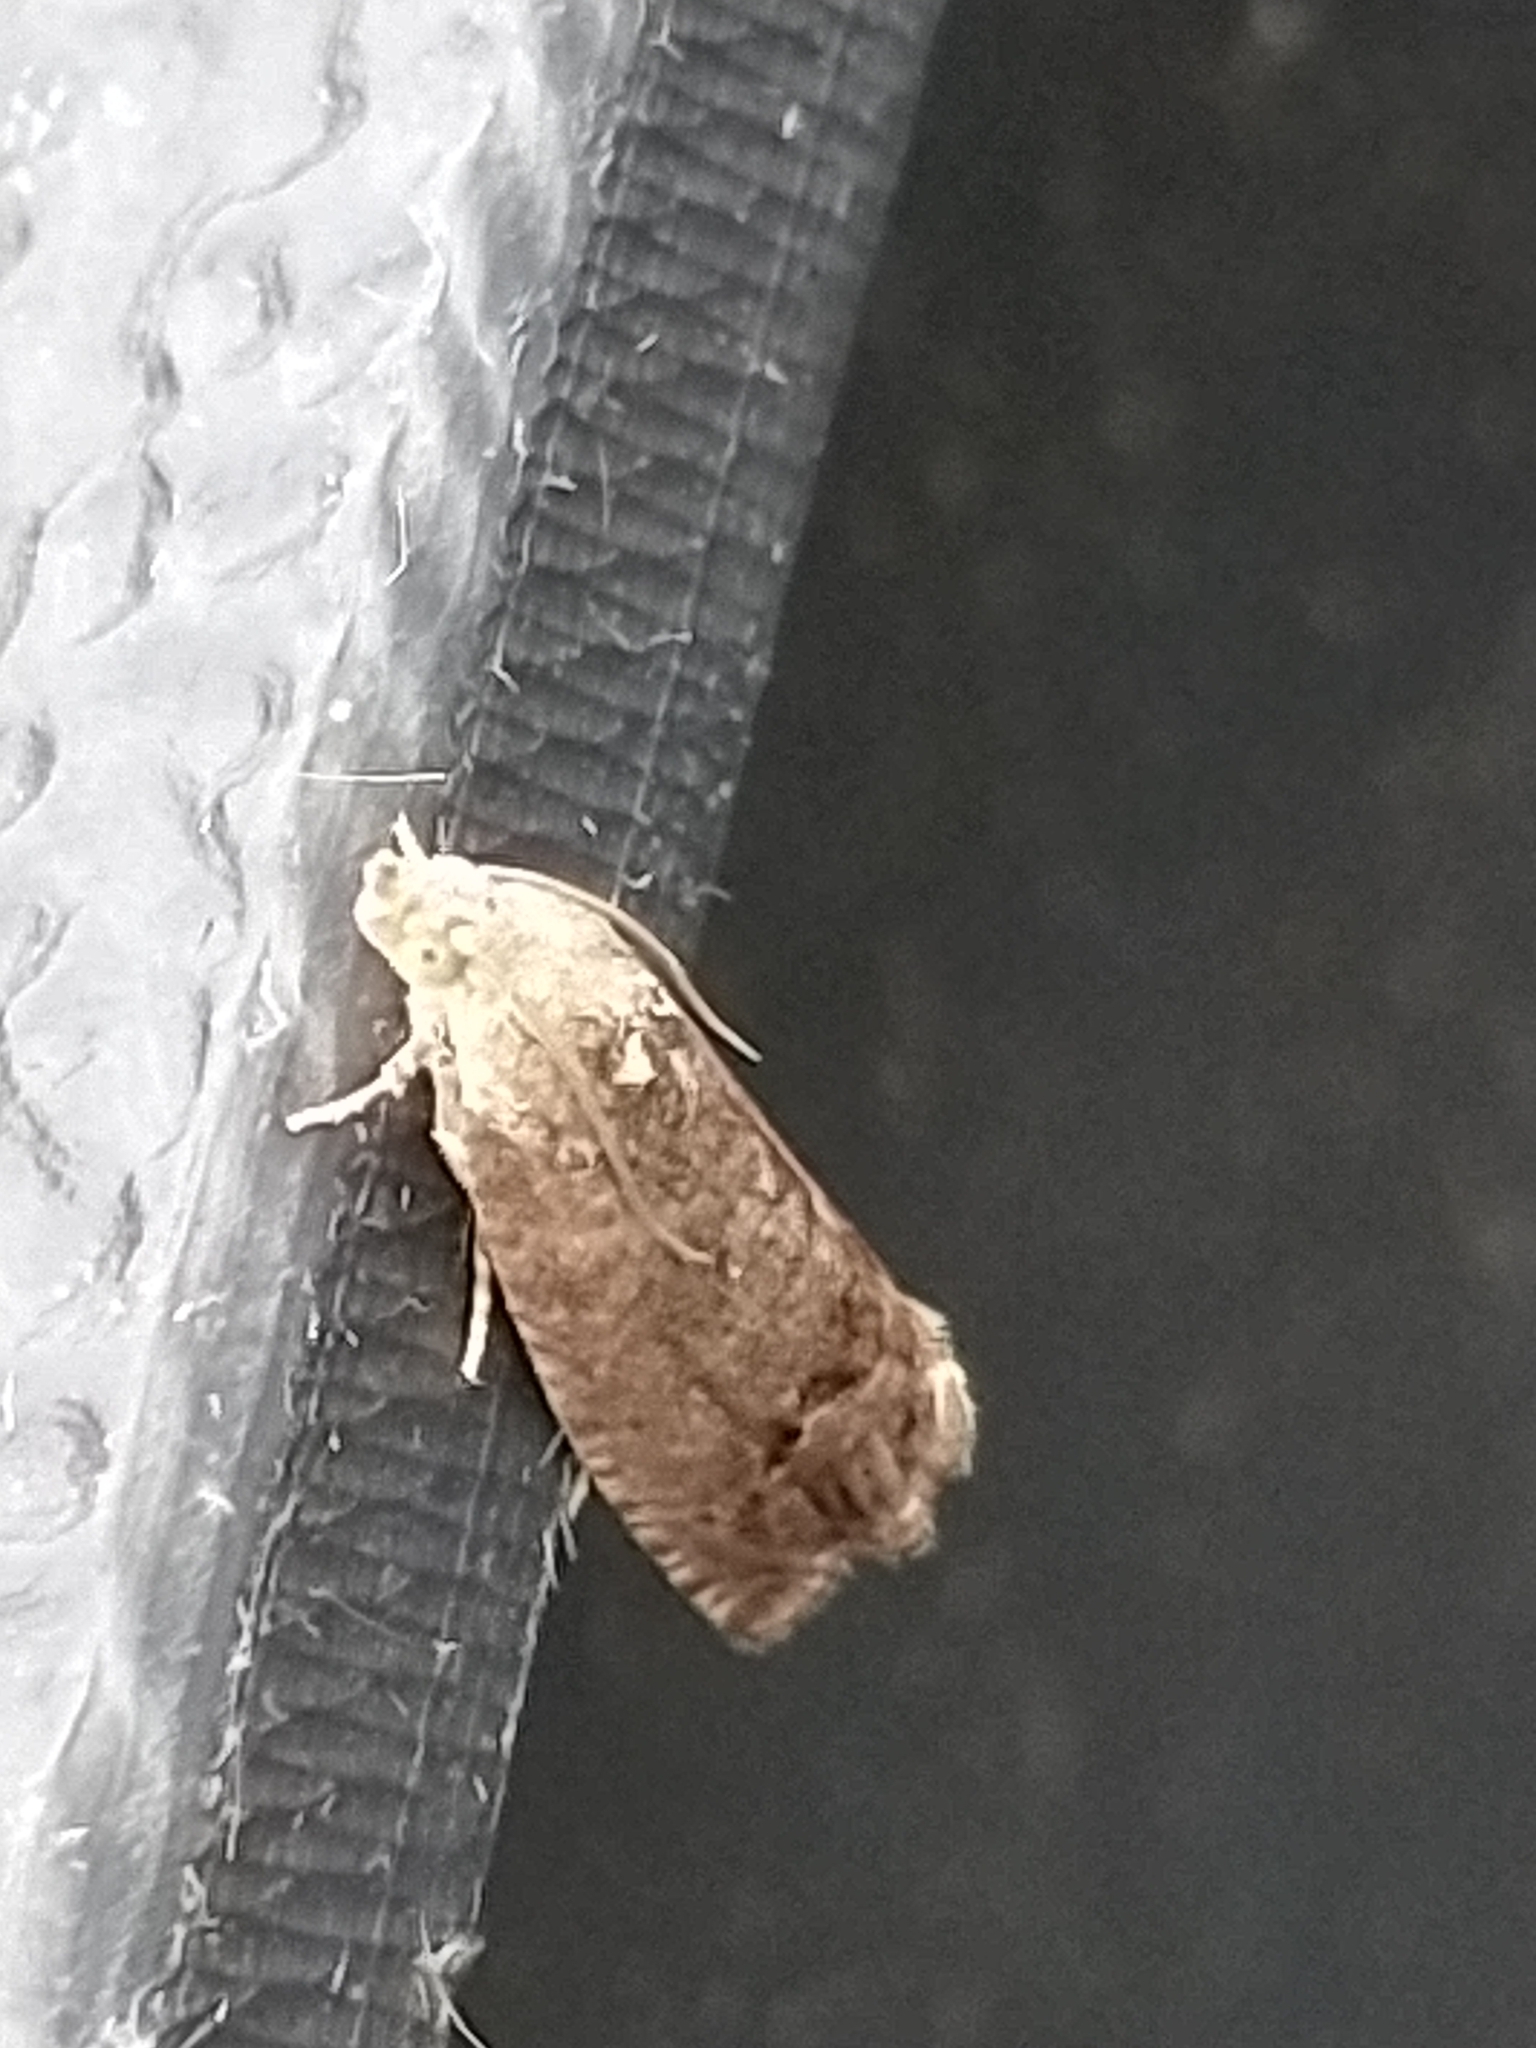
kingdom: Animalia
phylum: Arthropoda
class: Insecta
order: Lepidoptera
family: Tortricidae
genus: Cydia
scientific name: Cydia splendana
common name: De: kastanienwickler, eichenwickler es: oruga de la castaña fr: carpocapse des châtaignes it: cidia o tortrice tardiva delle castagne pt: bichado das castanhas gb: acorn moth, chestnut fruit tortrix
